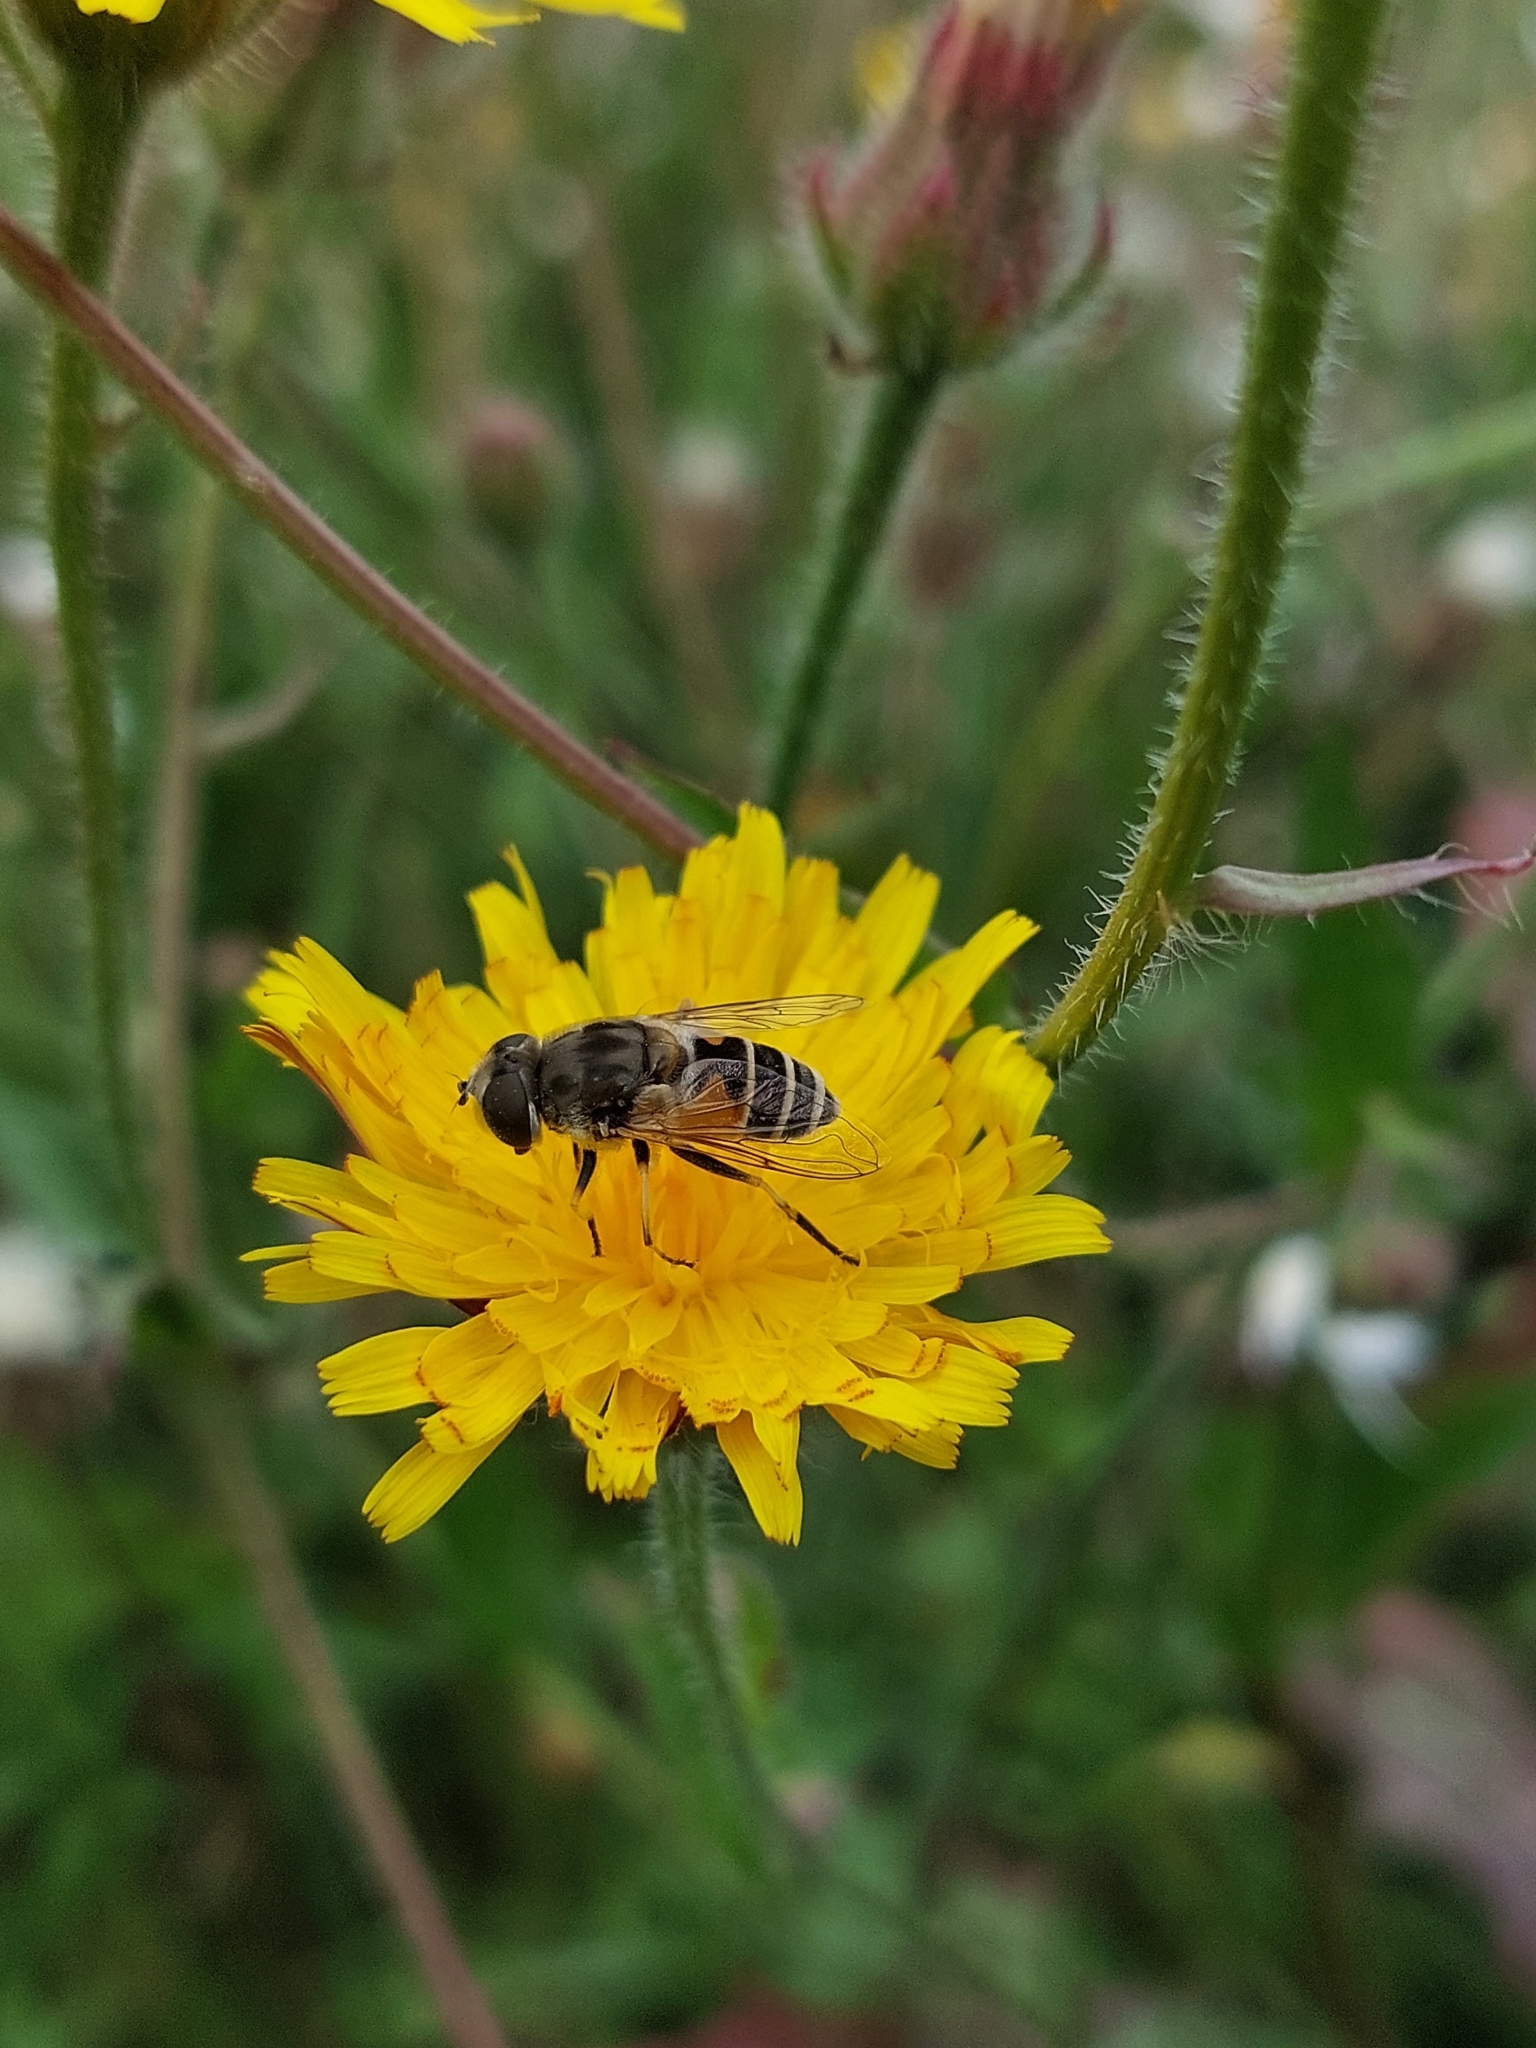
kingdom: Animalia
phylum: Arthropoda
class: Insecta
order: Diptera
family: Syrphidae
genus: Eristalis
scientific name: Eristalis arbustorum
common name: Hover fly
